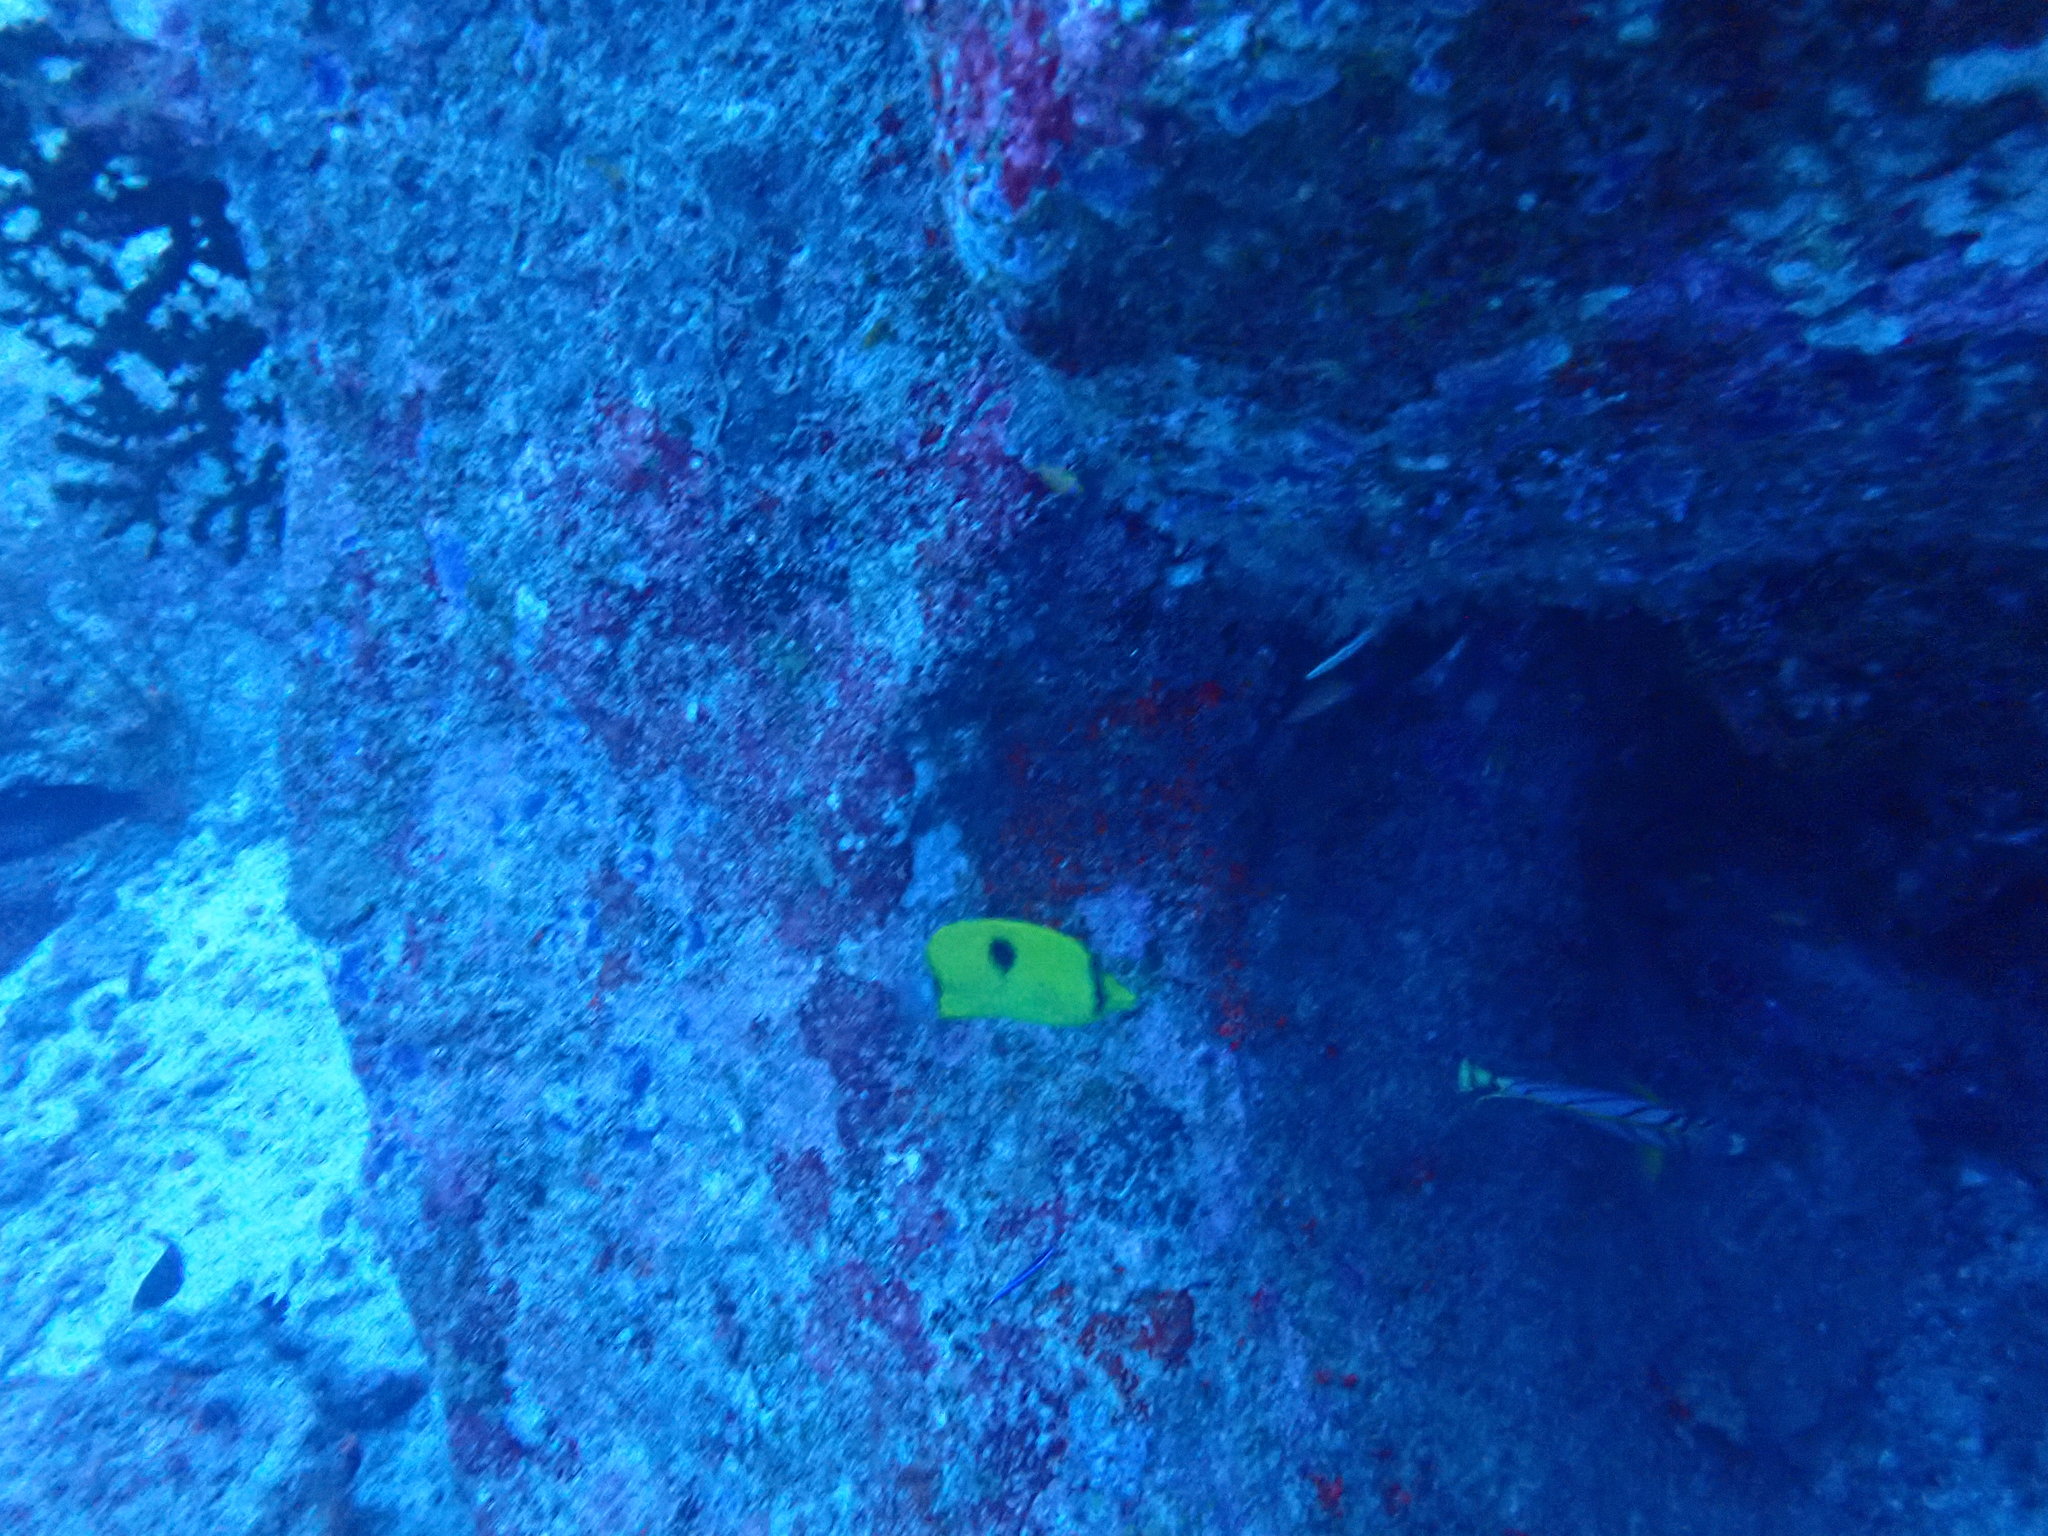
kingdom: Animalia
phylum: Chordata
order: Perciformes
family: Chaetodontidae
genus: Chaetodon
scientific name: Chaetodon interruptus
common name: Yellow teardrop butterflyfish
